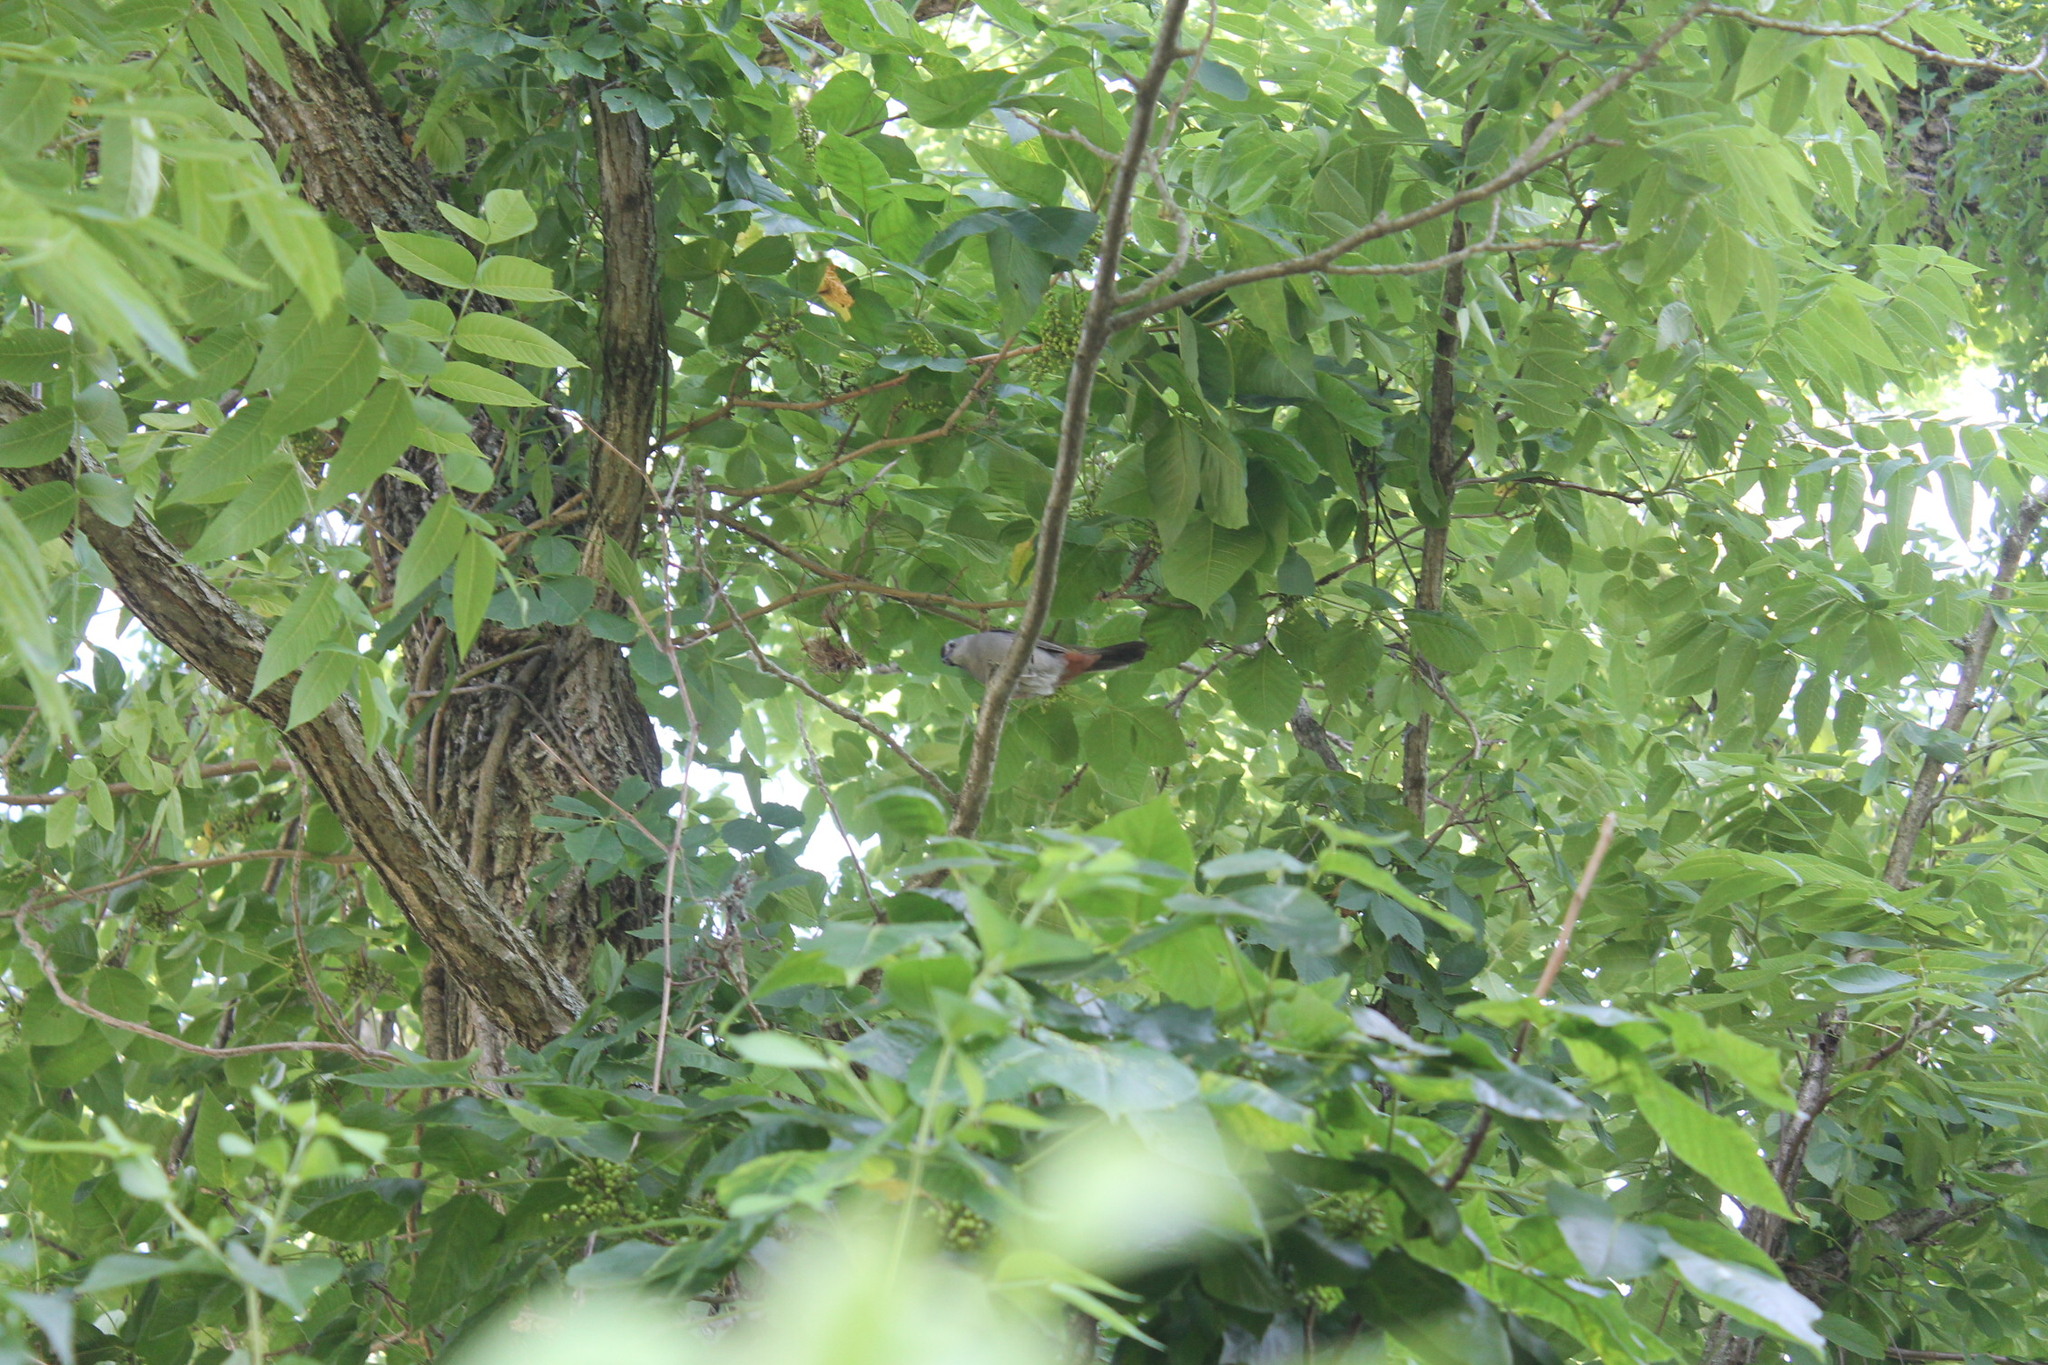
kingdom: Animalia
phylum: Chordata
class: Aves
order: Passeriformes
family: Mimidae
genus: Dumetella
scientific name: Dumetella carolinensis
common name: Gray catbird
